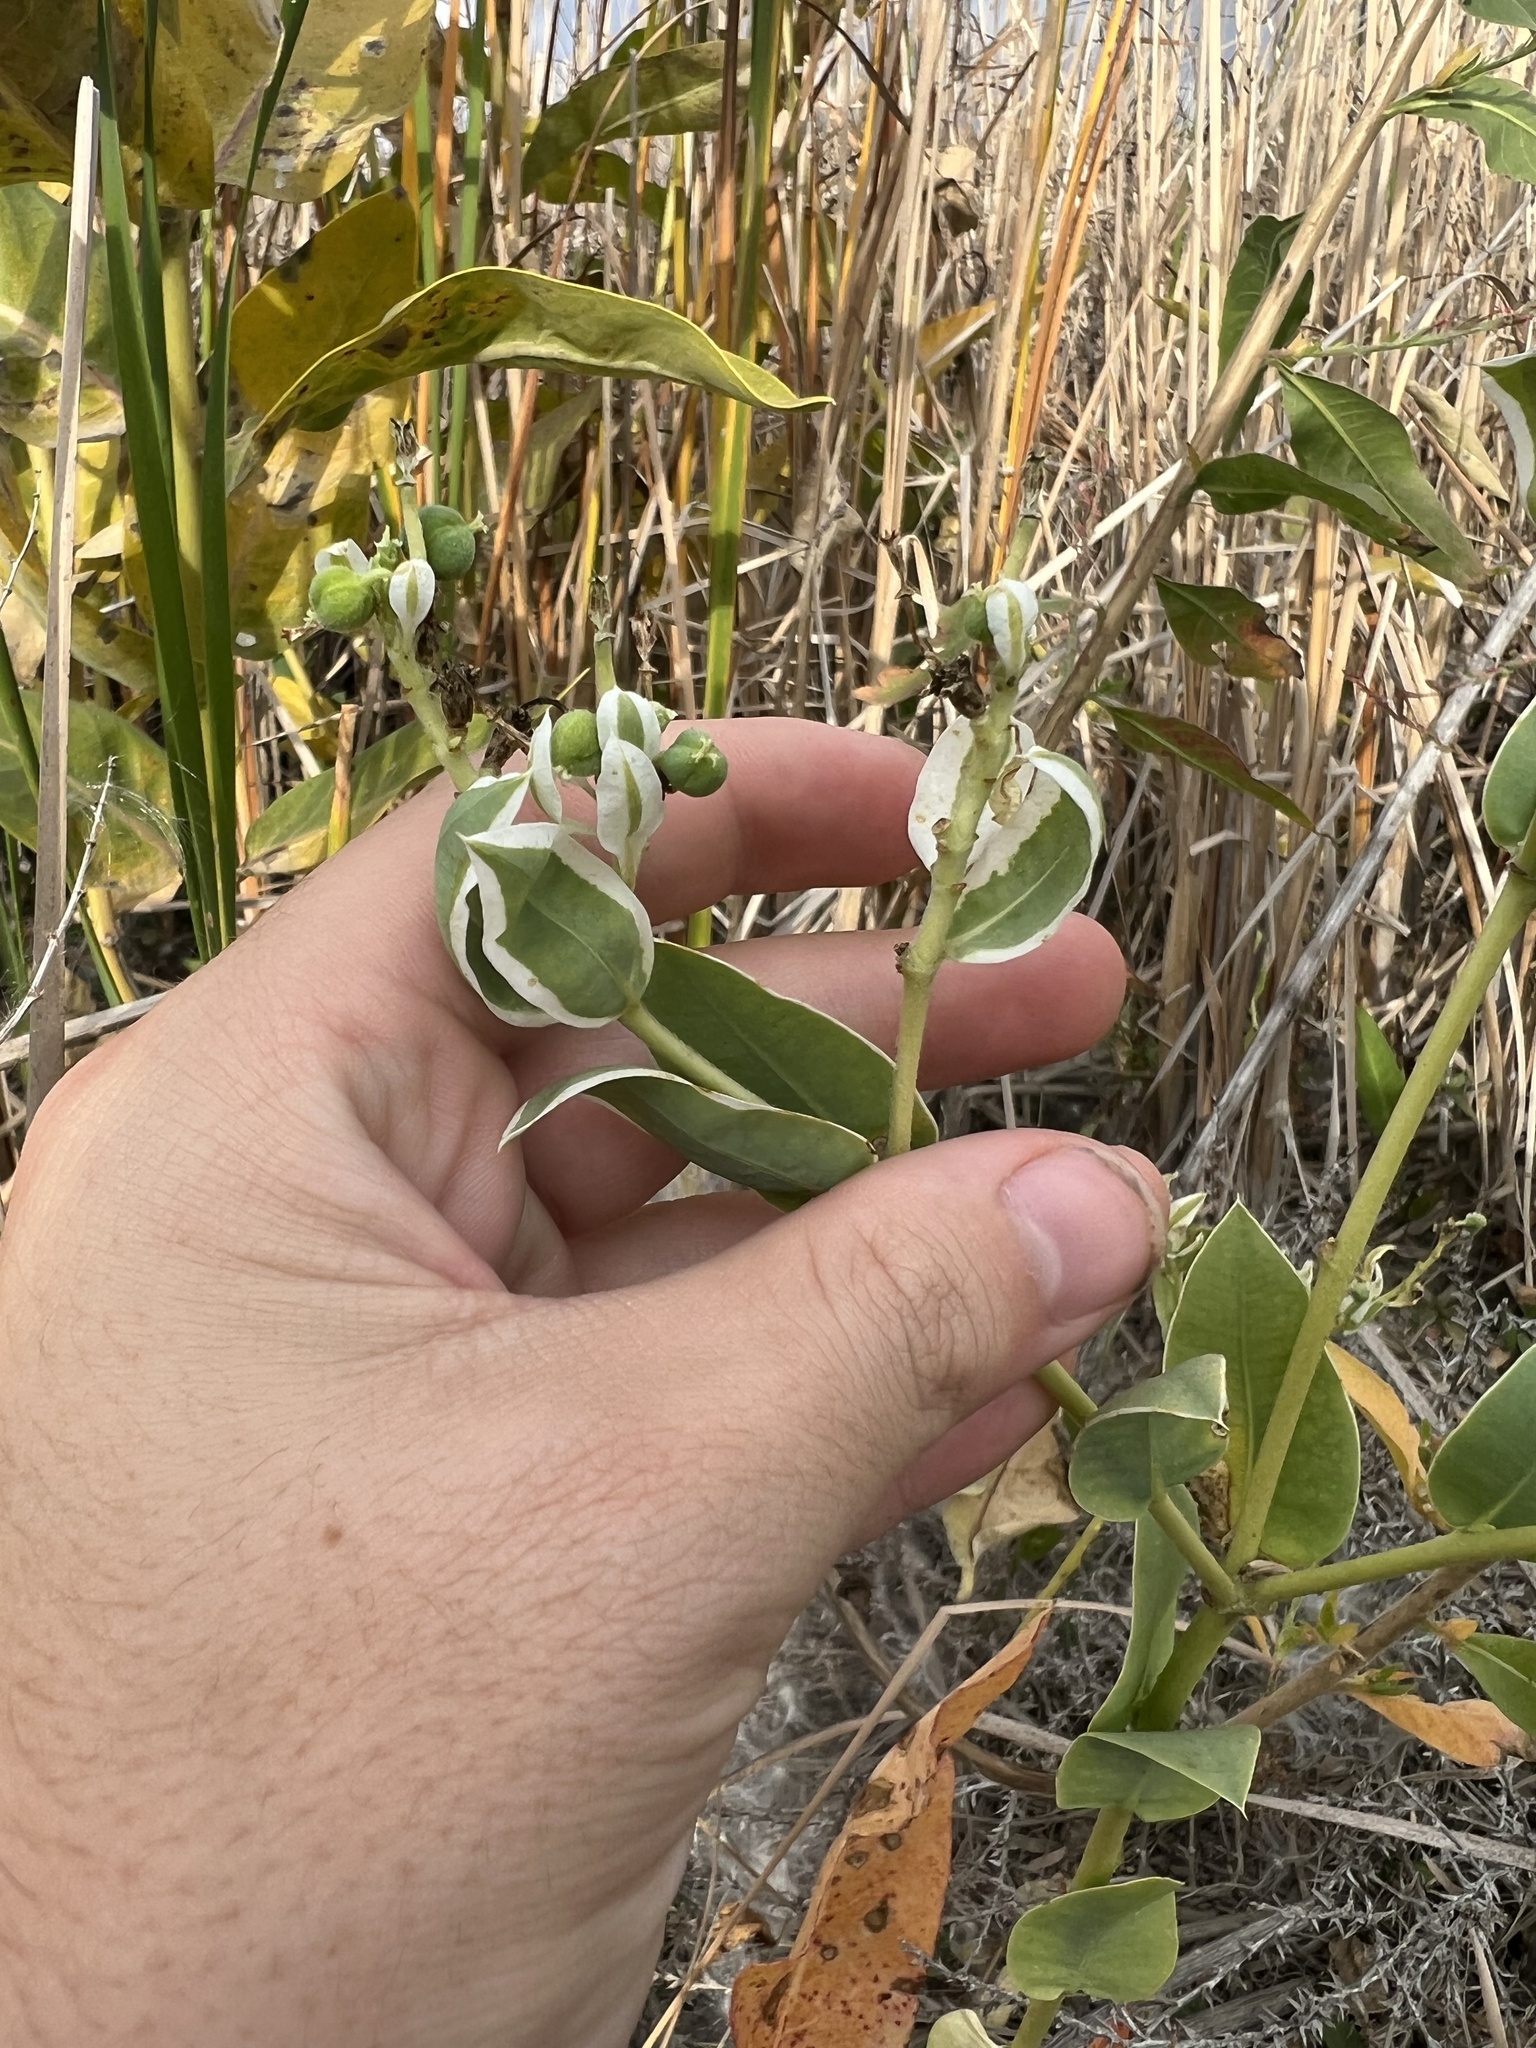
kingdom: Plantae
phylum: Tracheophyta
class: Magnoliopsida
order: Malpighiales
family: Euphorbiaceae
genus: Euphorbia
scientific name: Euphorbia marginata
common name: Ghostweed
